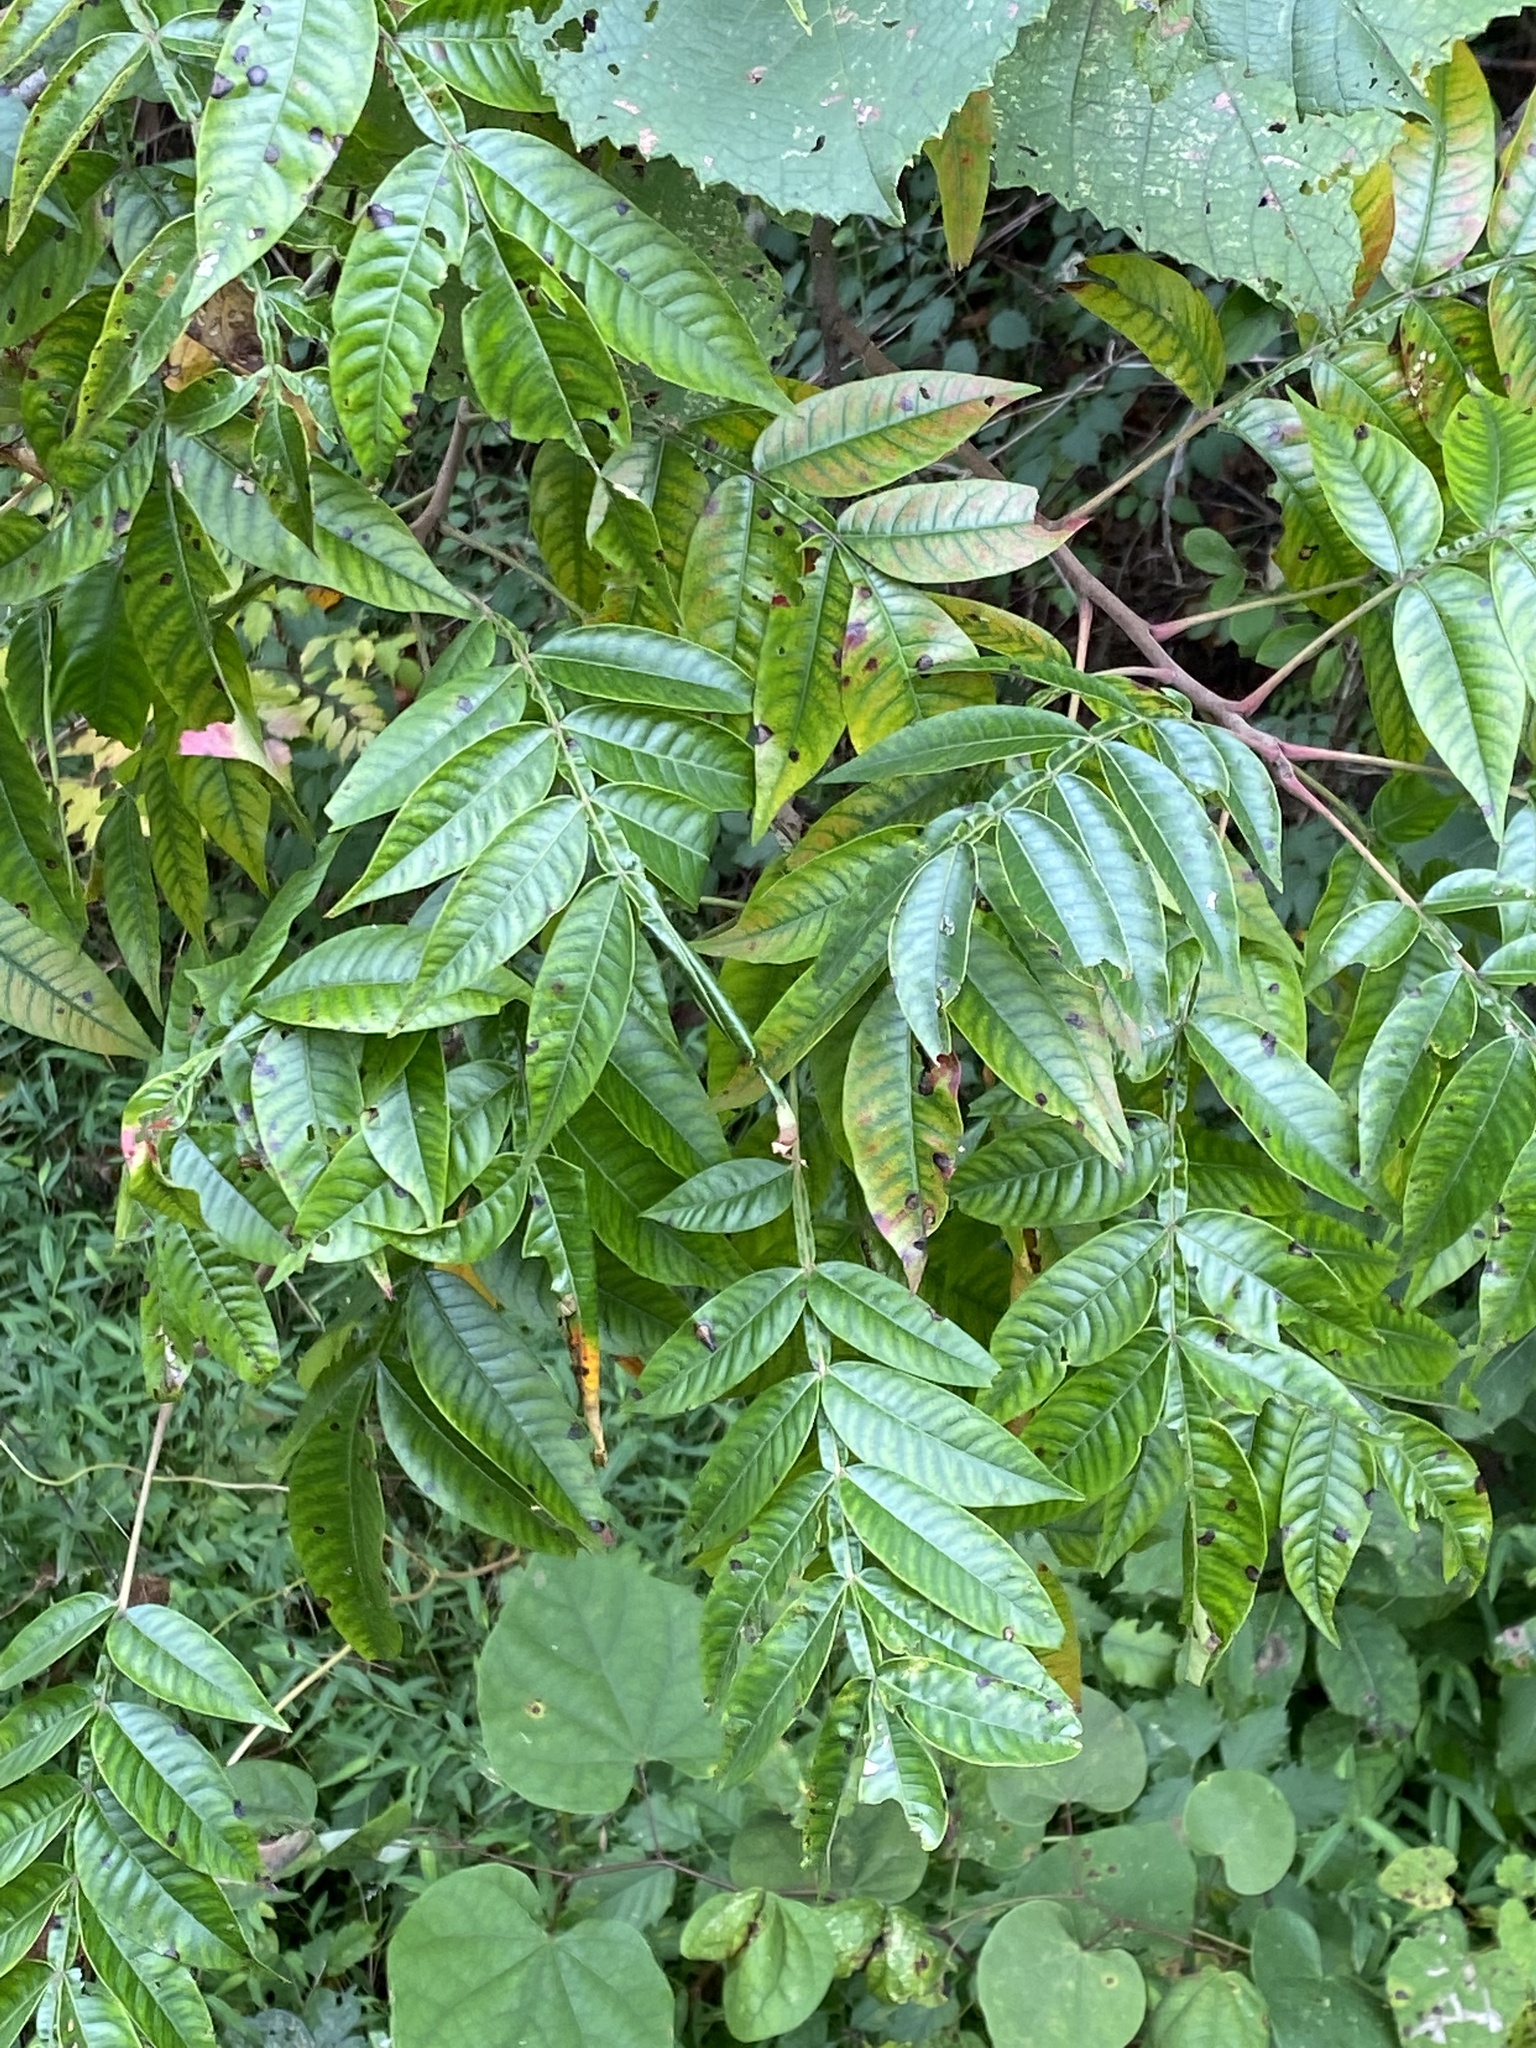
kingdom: Plantae
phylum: Tracheophyta
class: Magnoliopsida
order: Sapindales
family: Anacardiaceae
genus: Rhus
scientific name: Rhus copallina
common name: Shining sumac
